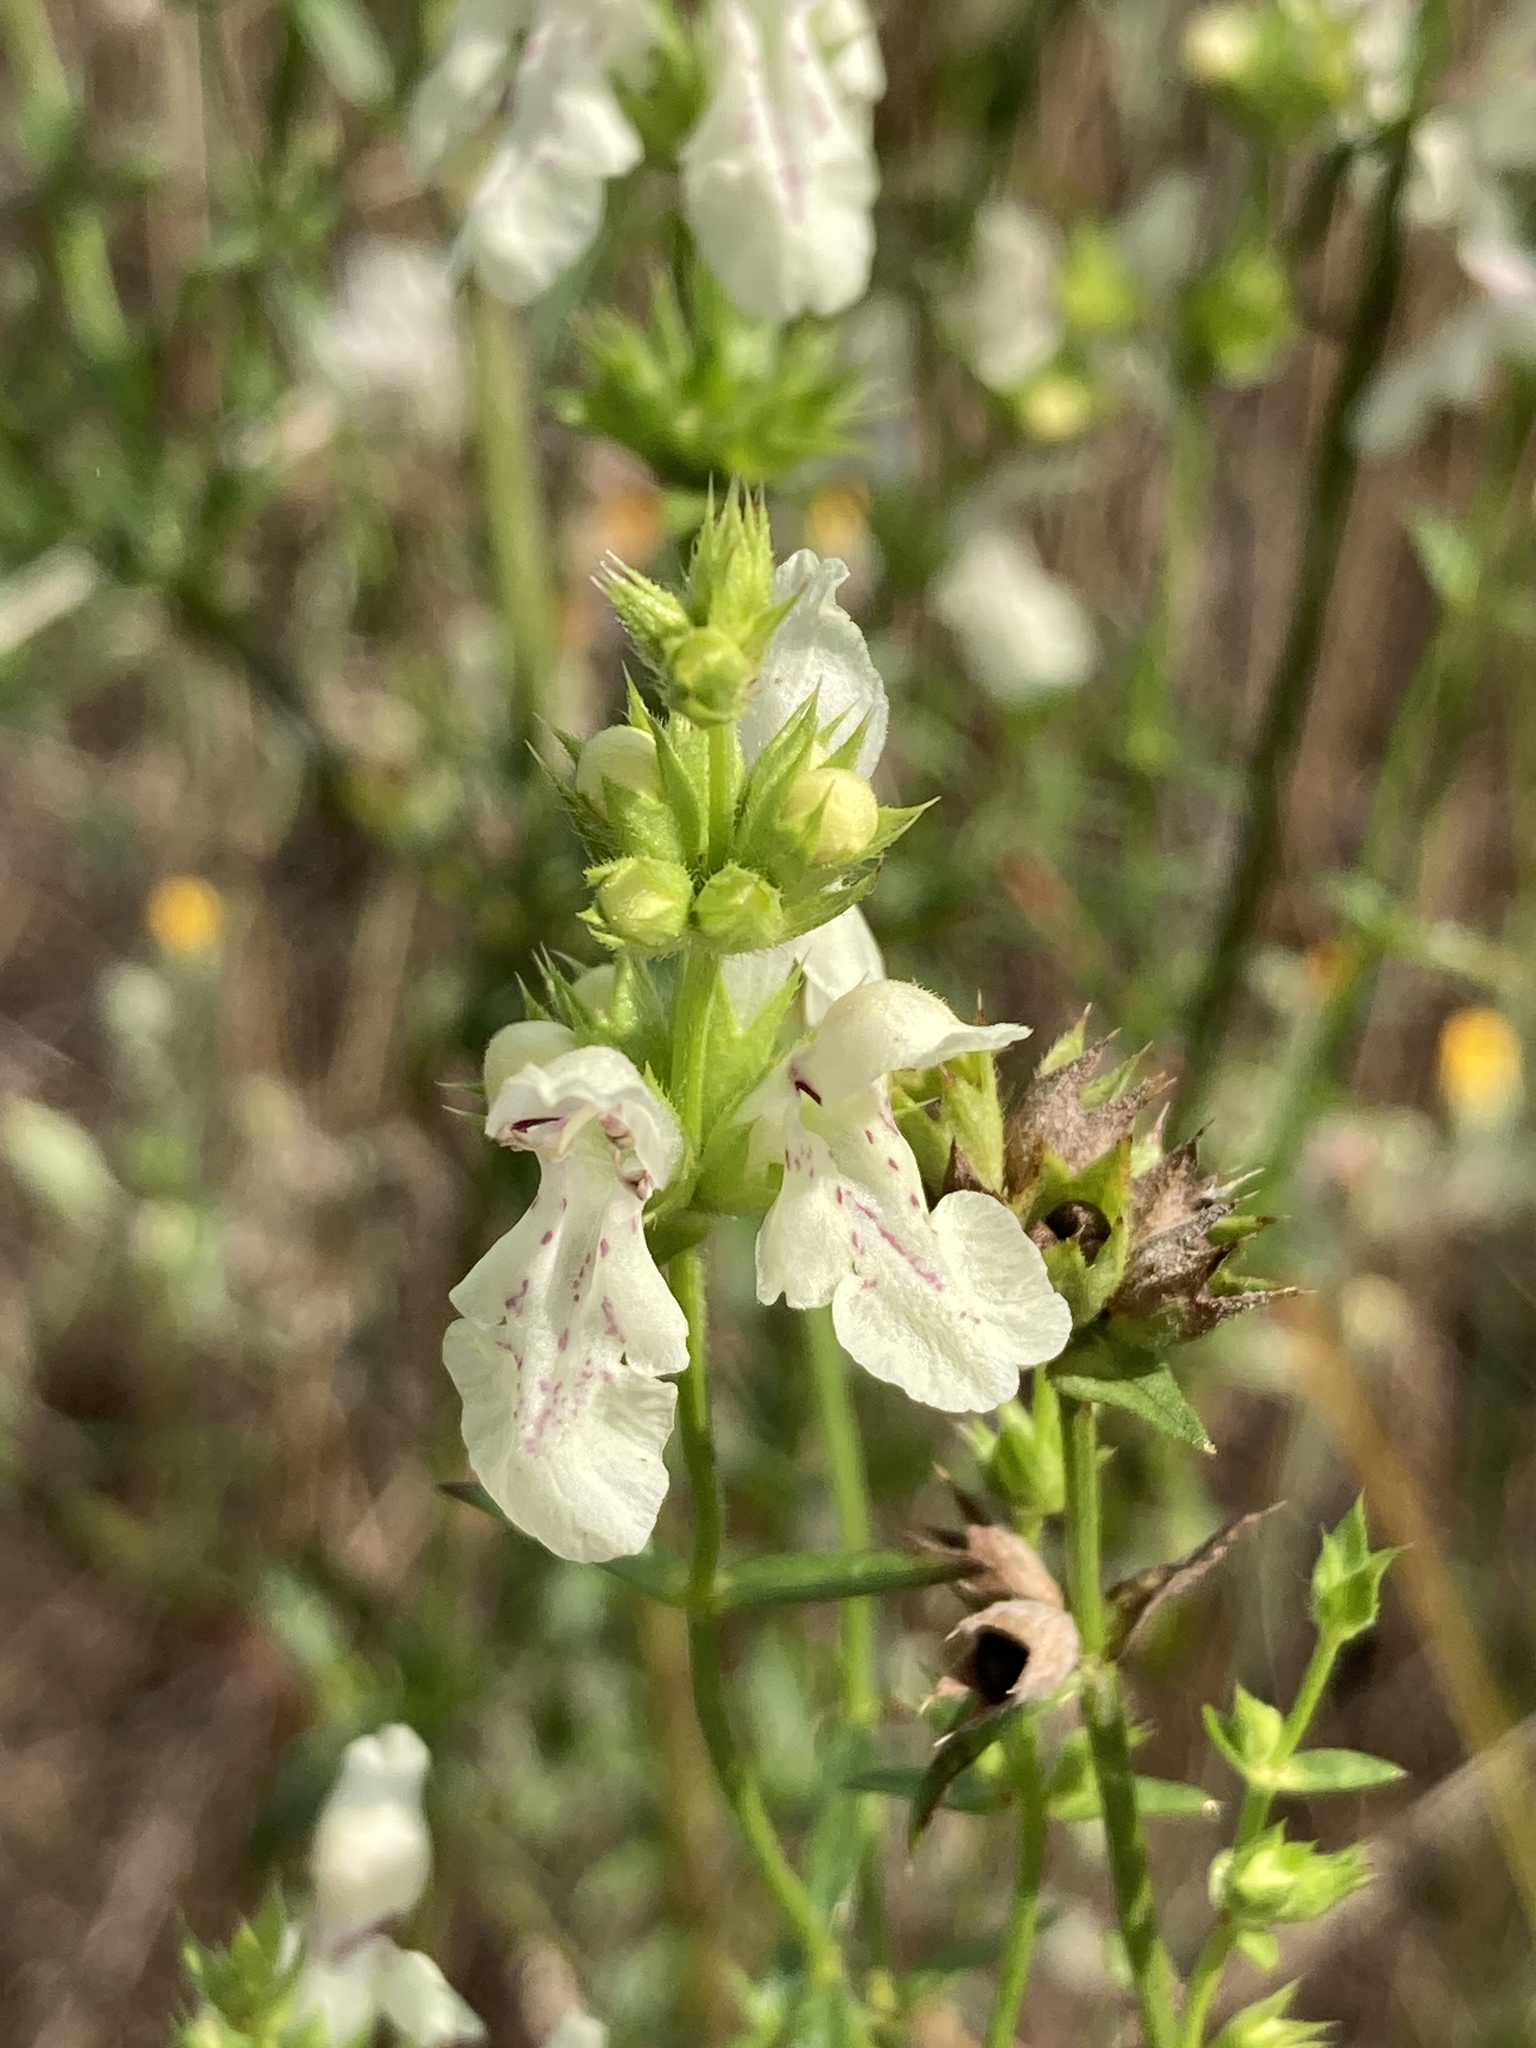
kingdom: Plantae
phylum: Tracheophyta
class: Magnoliopsida
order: Lamiales
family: Lamiaceae
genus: Stachys
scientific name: Stachys recta
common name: Perennial yellow-woundwort
